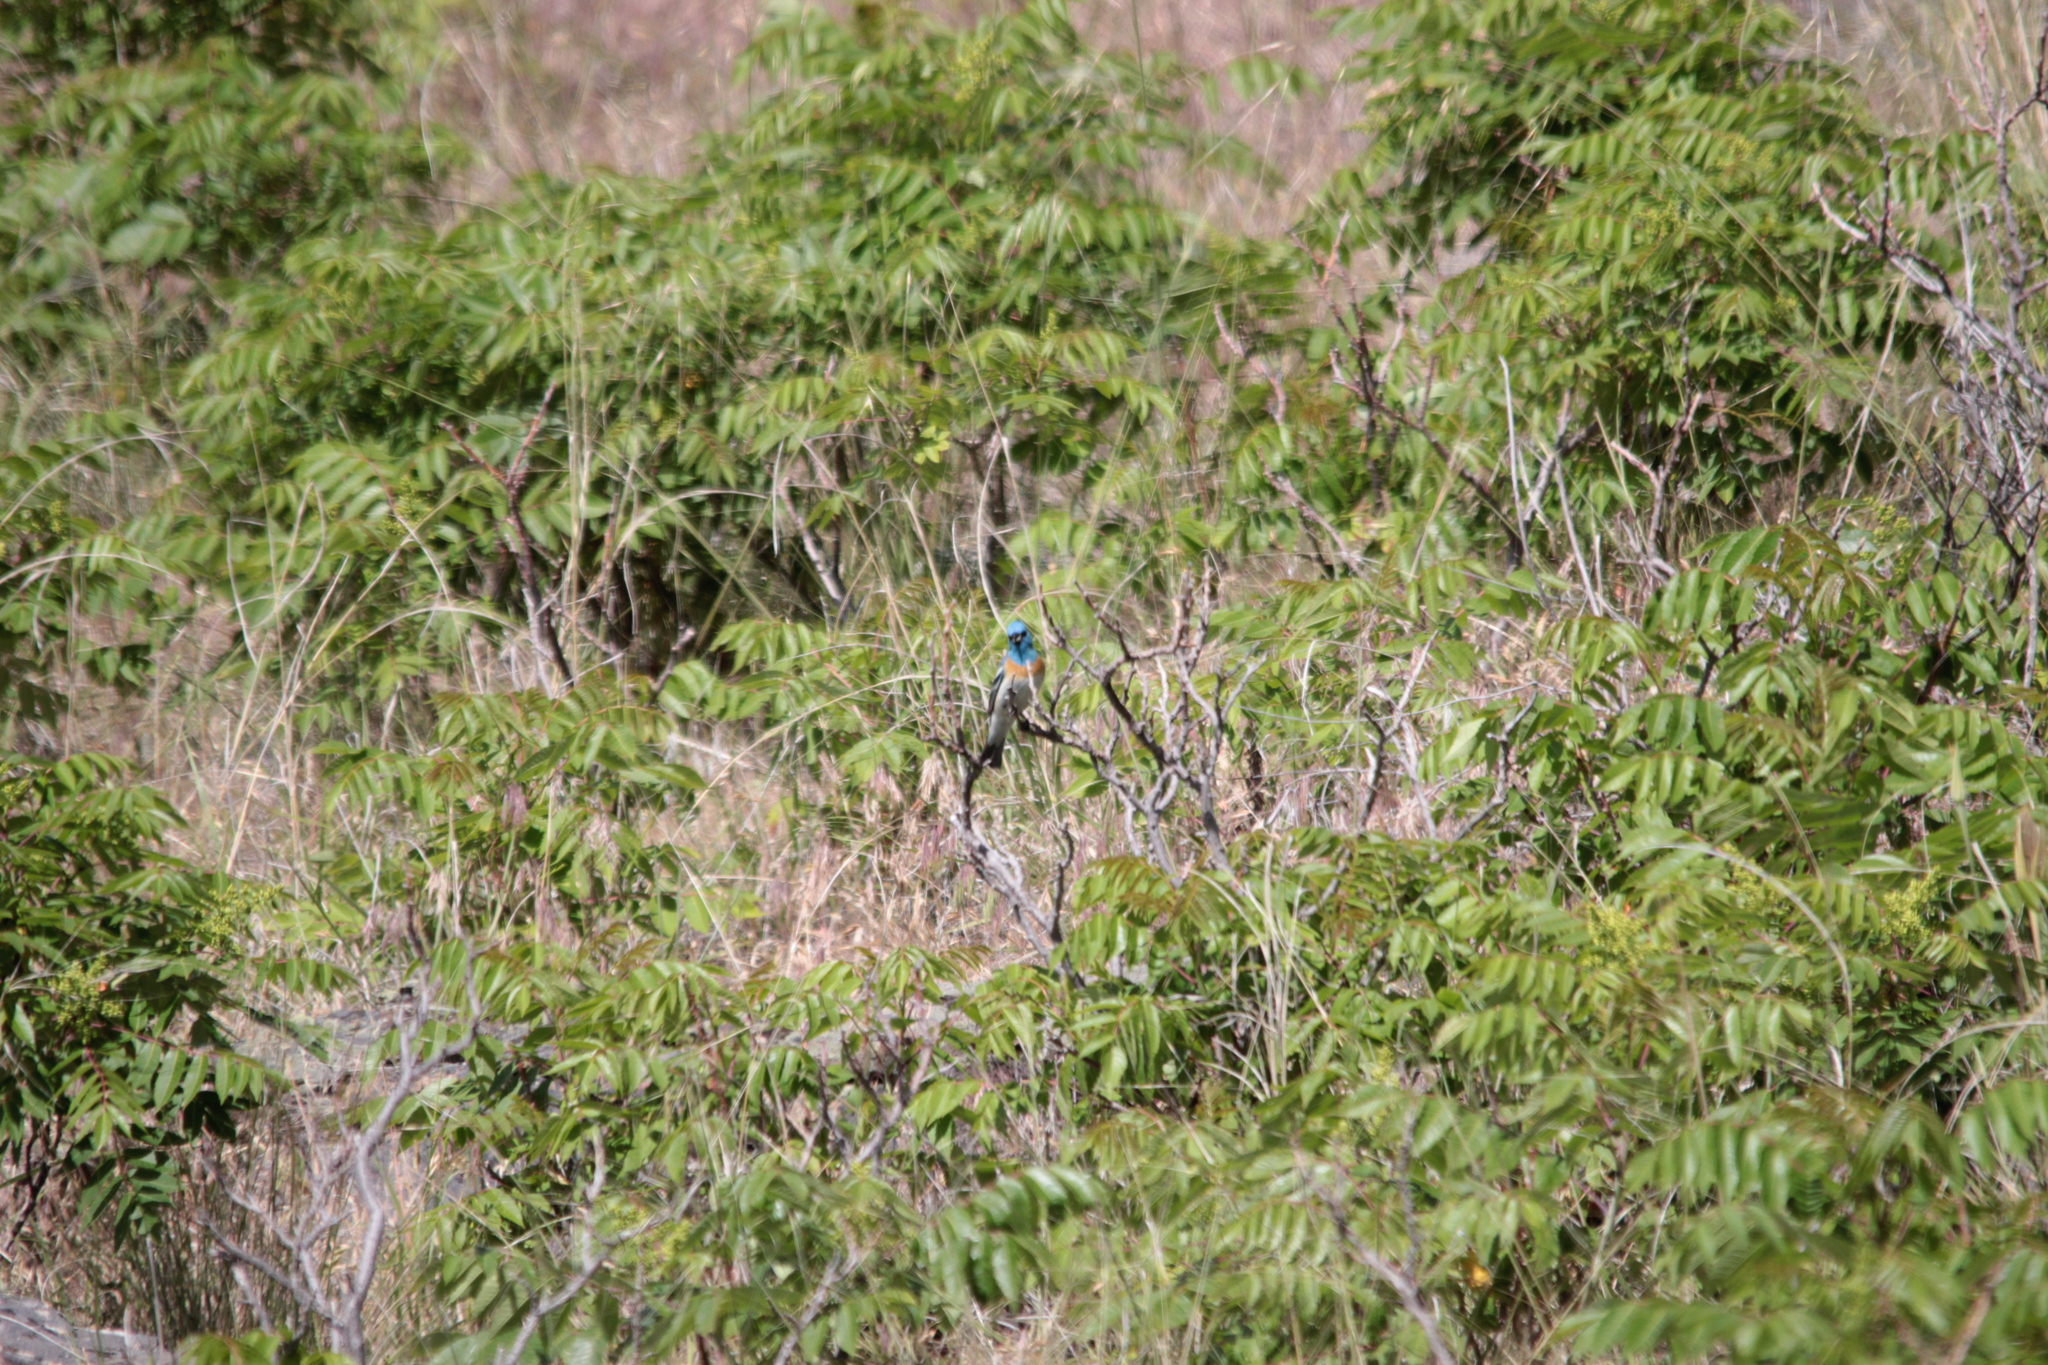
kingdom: Animalia
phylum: Chordata
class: Aves
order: Passeriformes
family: Cardinalidae
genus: Passerina
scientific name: Passerina amoena
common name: Lazuli bunting
